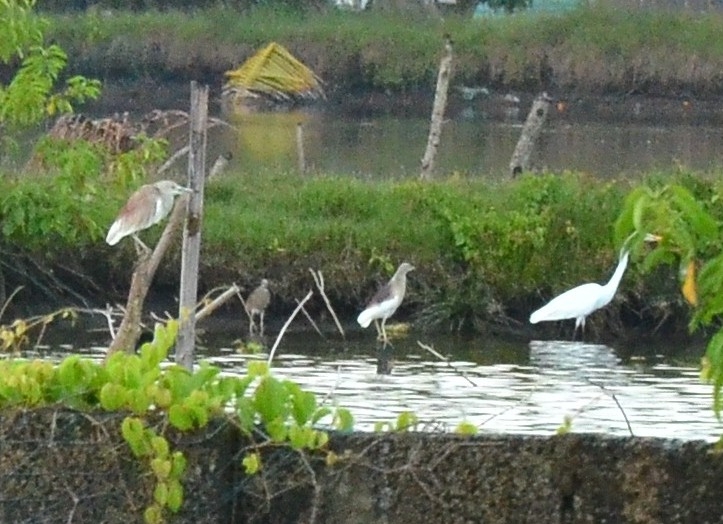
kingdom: Animalia
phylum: Chordata
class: Aves
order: Pelecaniformes
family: Ardeidae
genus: Ardeola
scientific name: Ardeola grayii
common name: Indian pond heron
